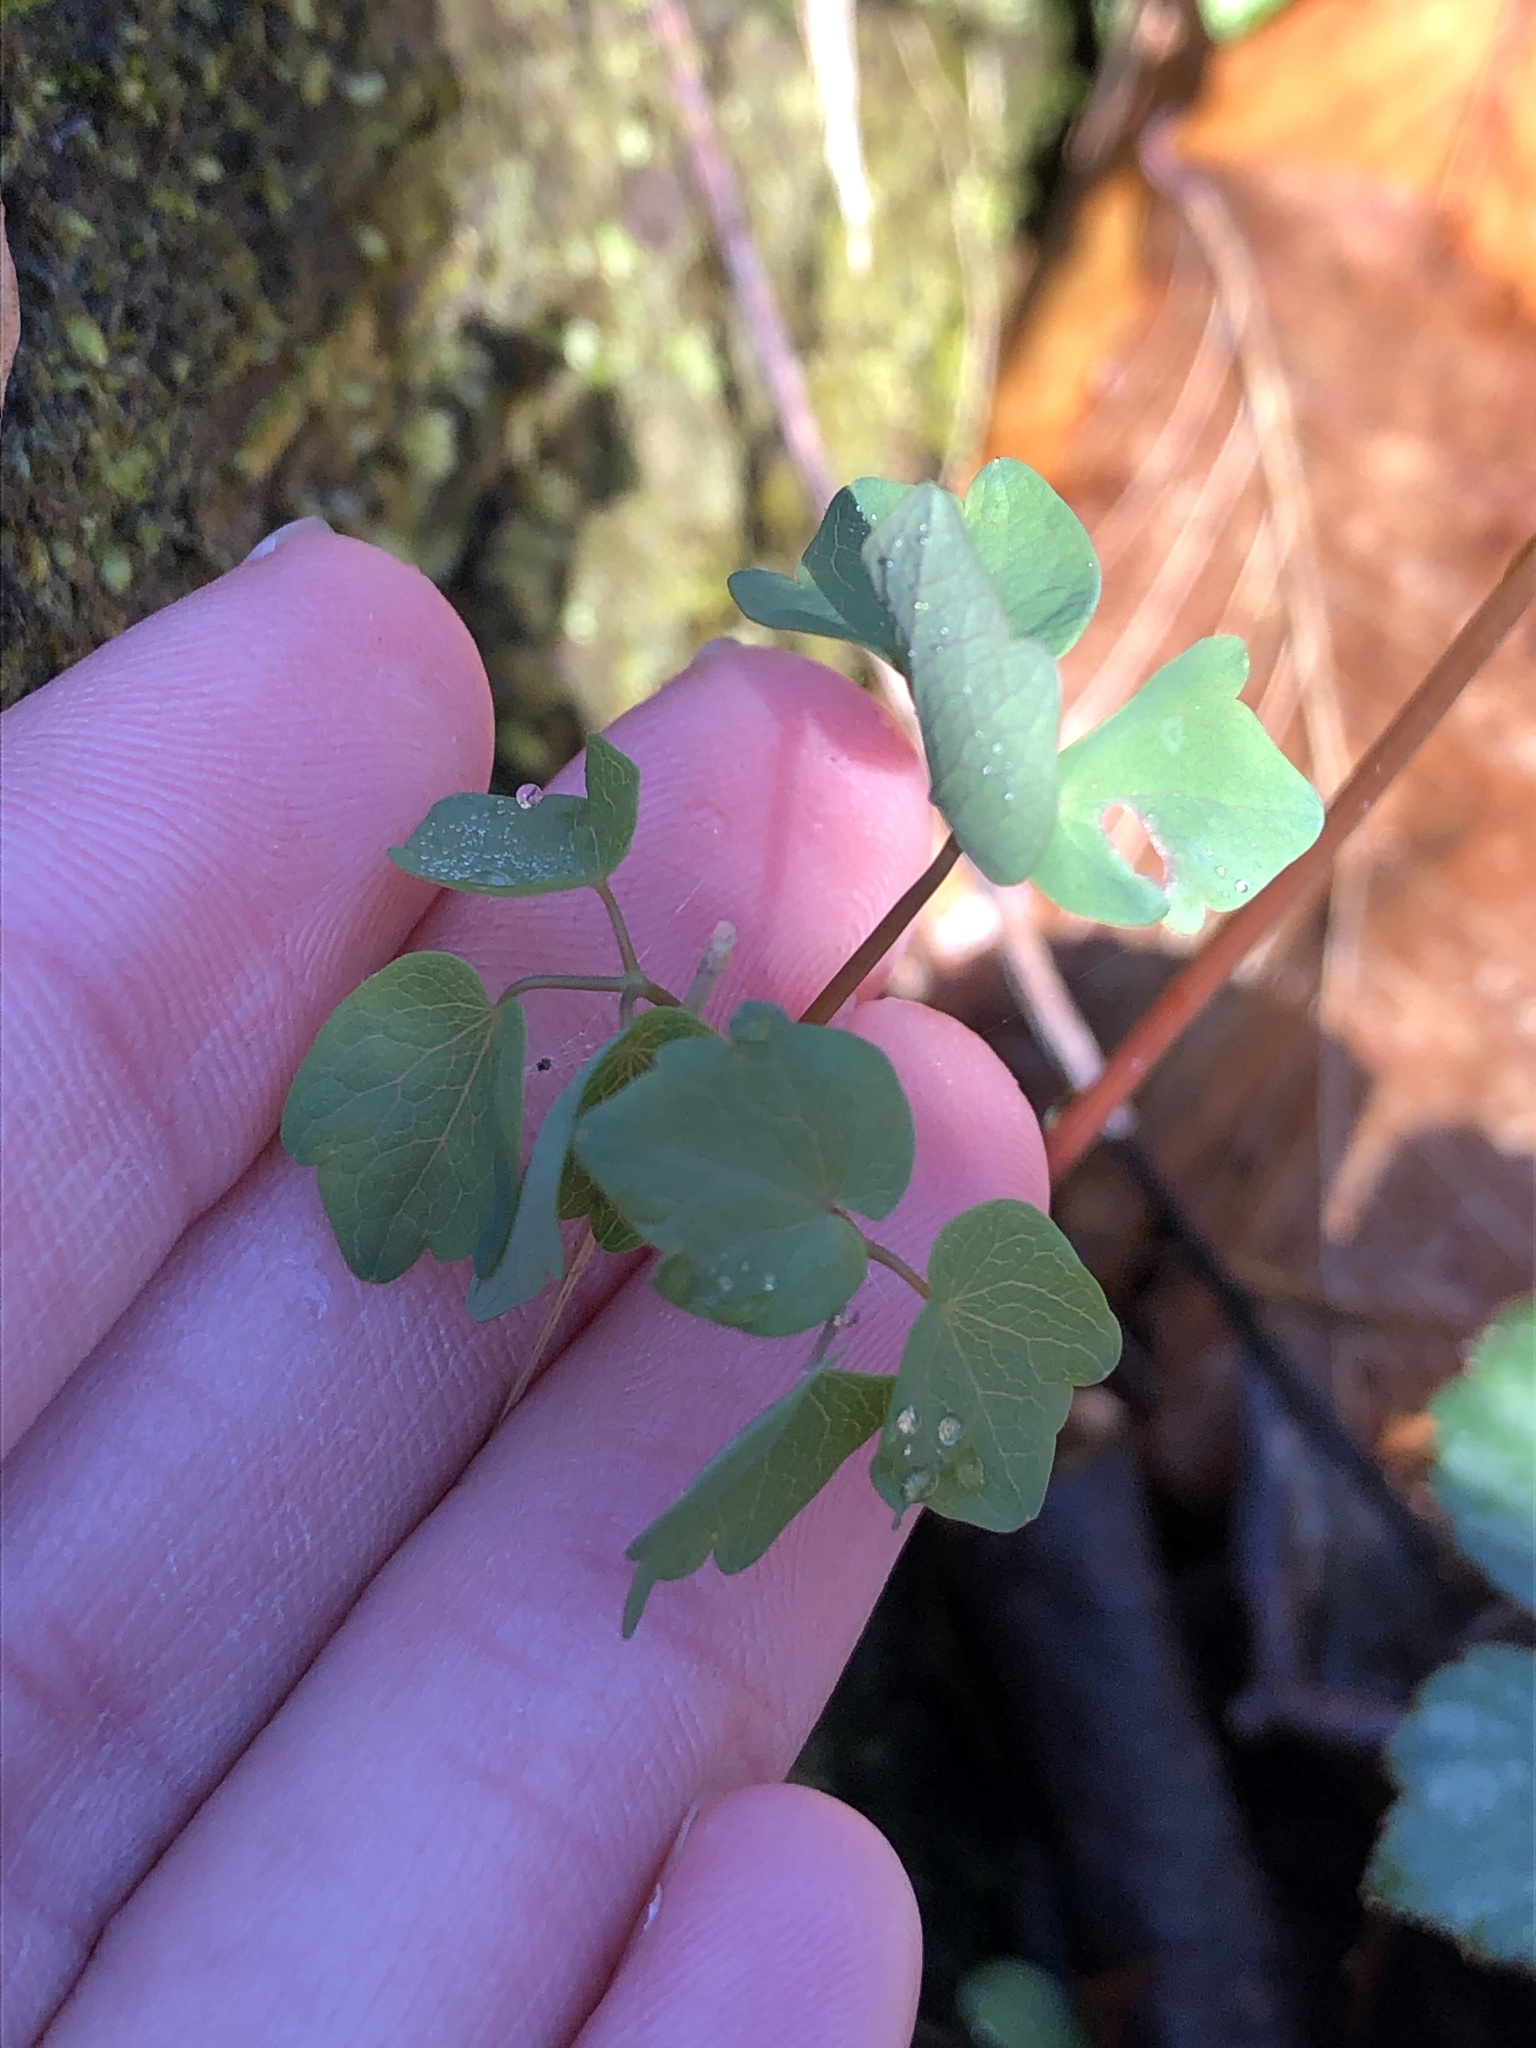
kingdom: Plantae
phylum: Tracheophyta
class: Magnoliopsida
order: Ranunculales
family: Ranunculaceae
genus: Thalictrum
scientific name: Thalictrum thalictroides
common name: Rue-anemone
